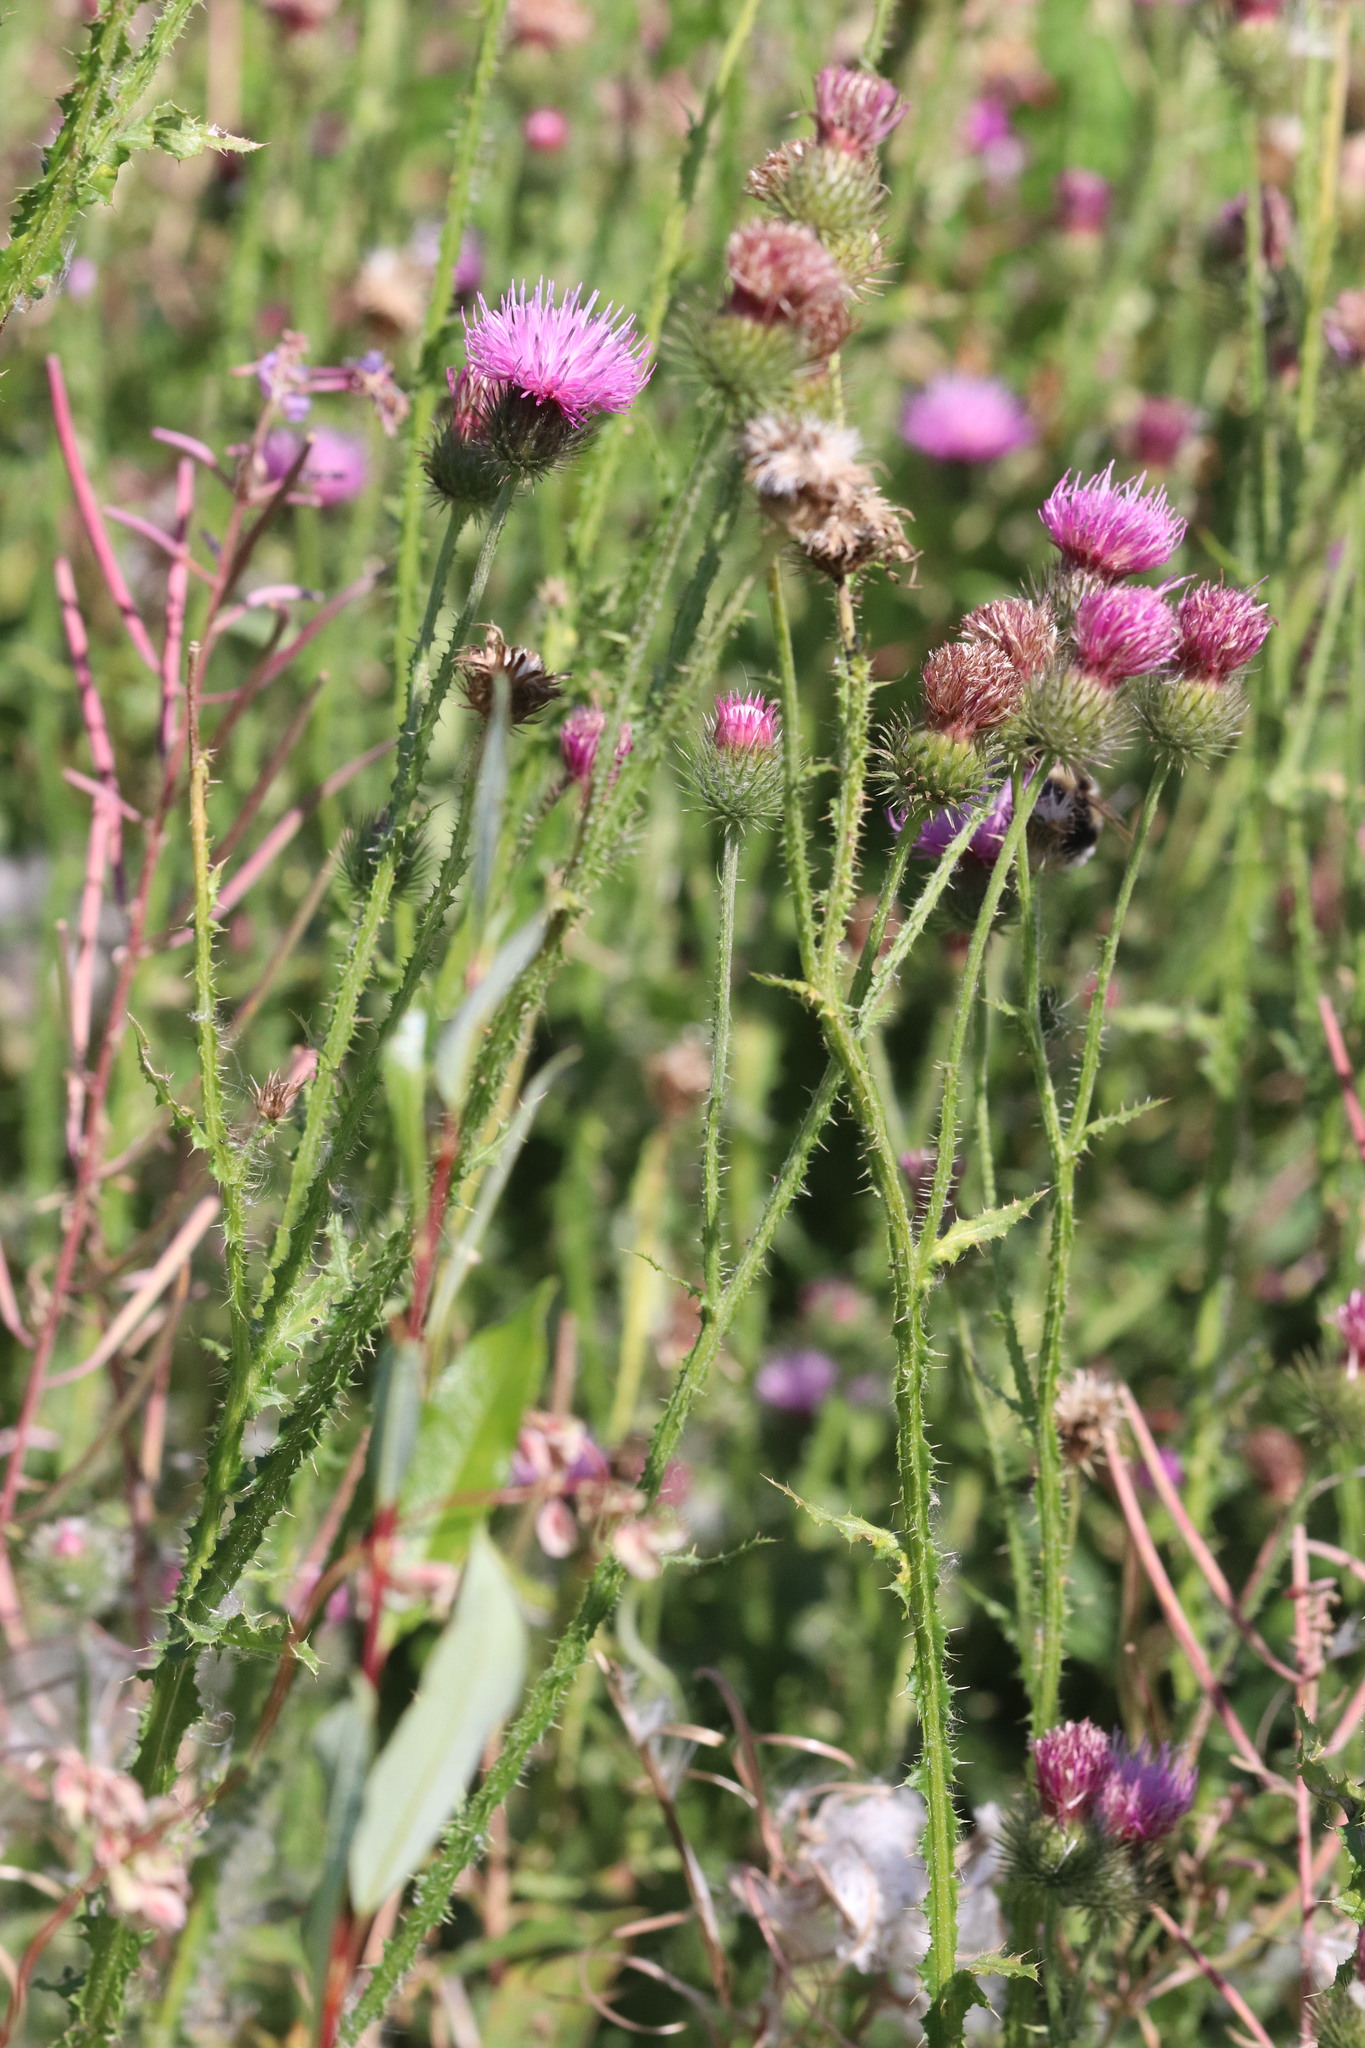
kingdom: Plantae
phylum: Tracheophyta
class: Magnoliopsida
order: Asterales
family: Asteraceae
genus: Carduus
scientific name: Carduus crispus
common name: Welted thistle
